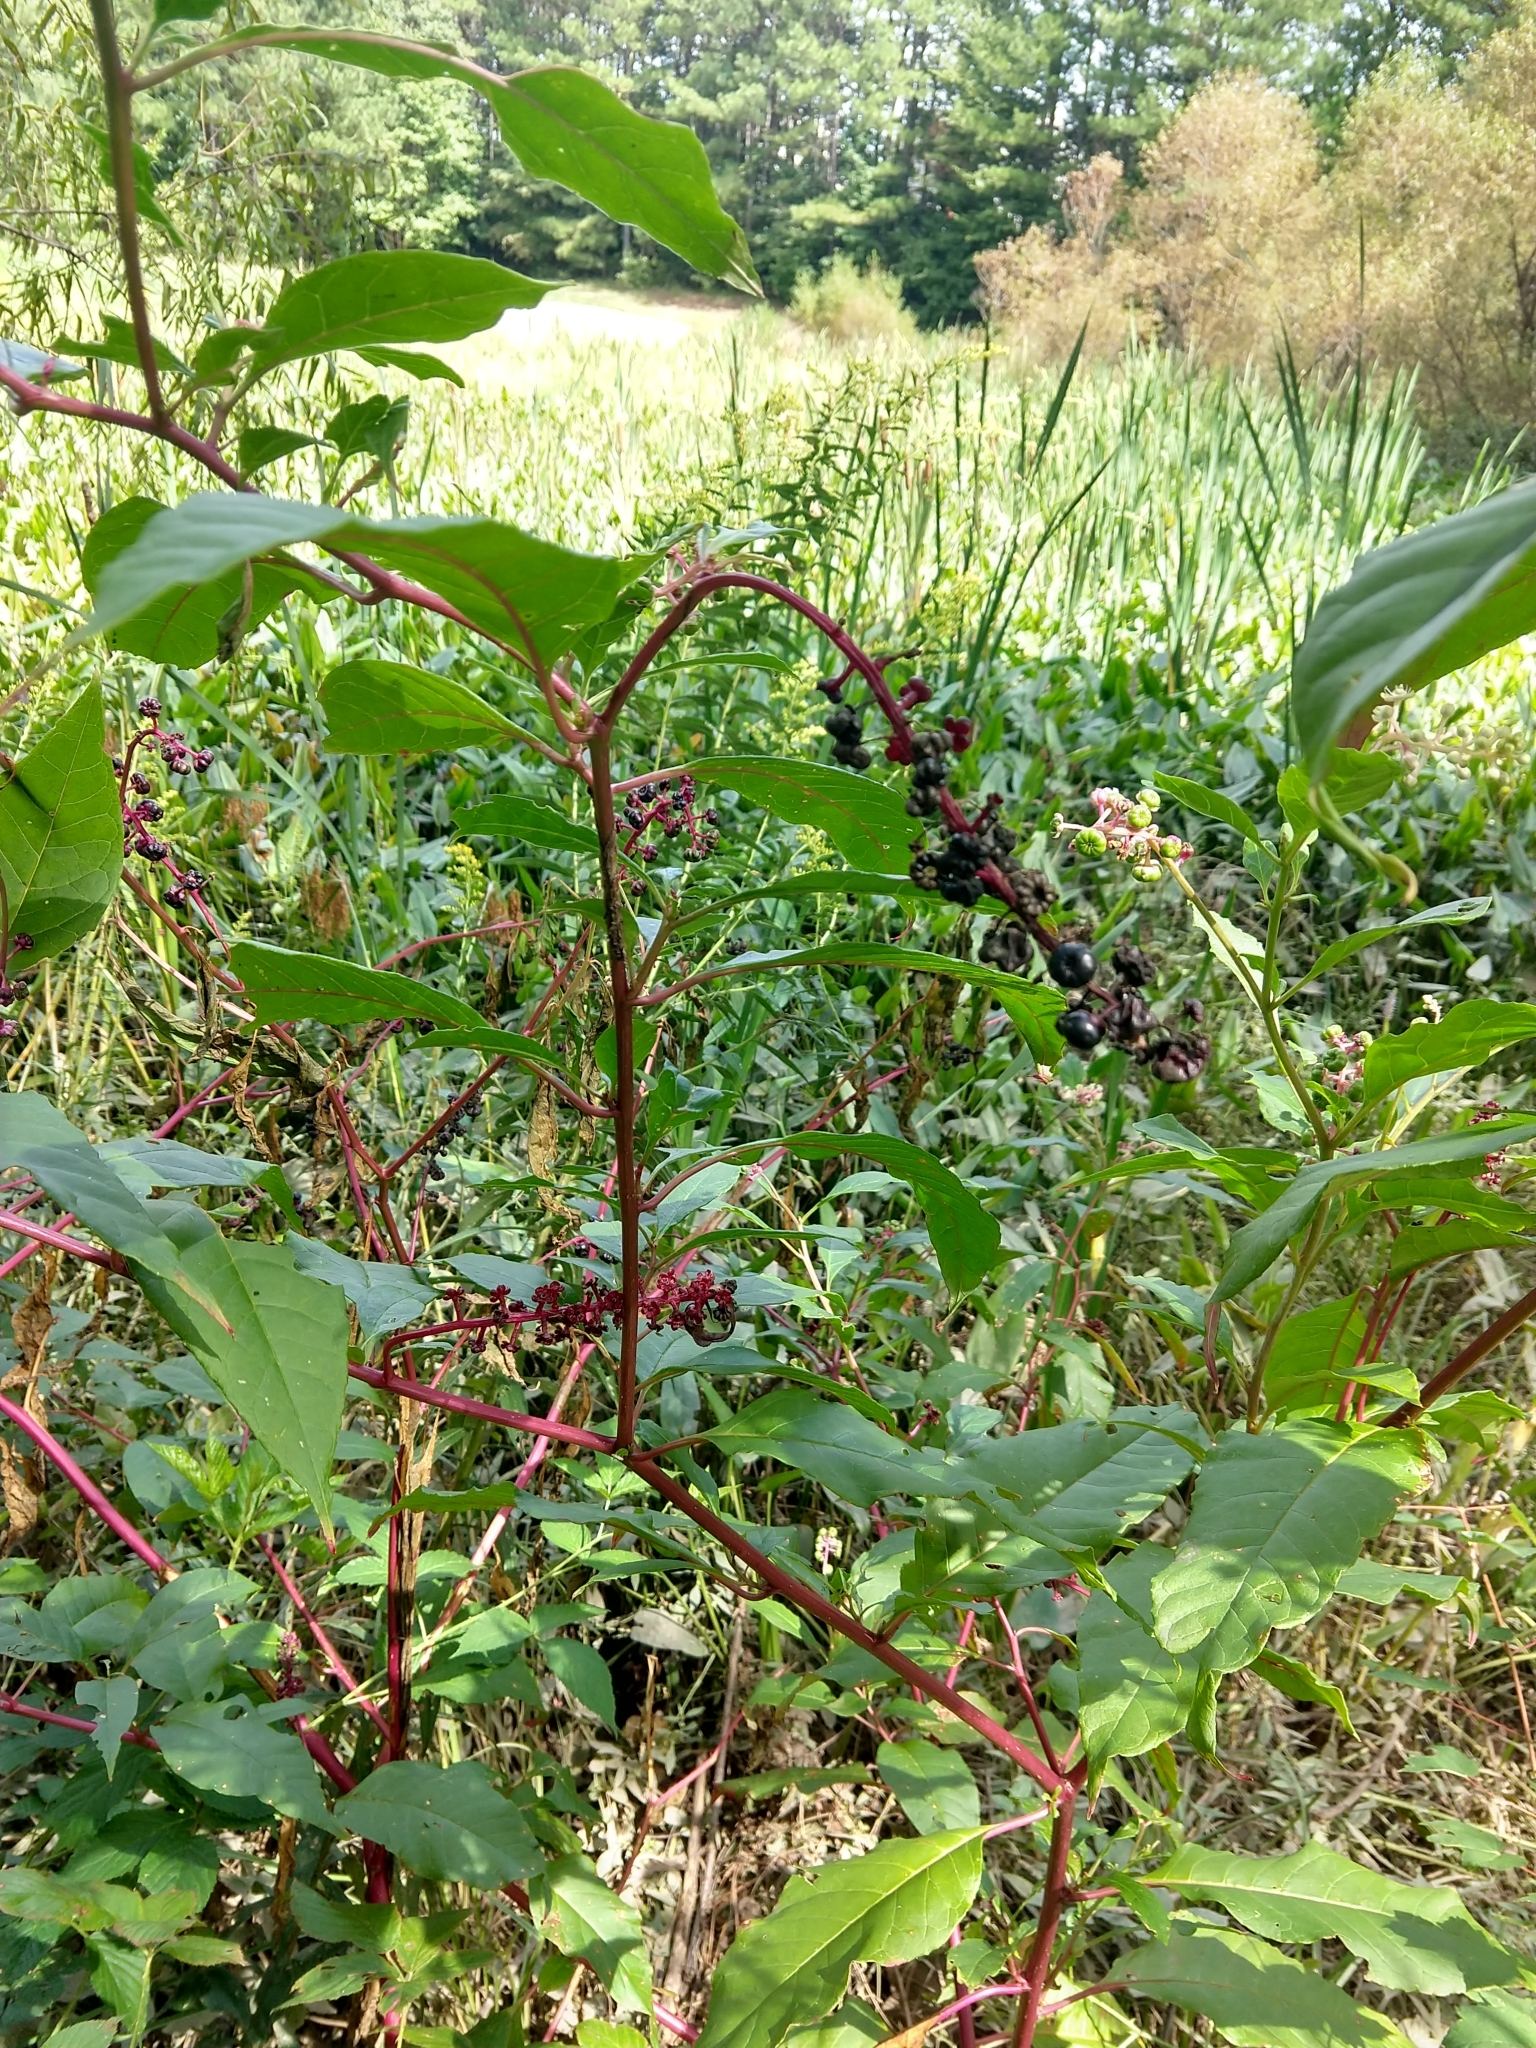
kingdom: Plantae
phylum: Tracheophyta
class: Magnoliopsida
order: Caryophyllales
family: Phytolaccaceae
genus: Phytolacca
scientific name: Phytolacca americana
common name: American pokeweed
